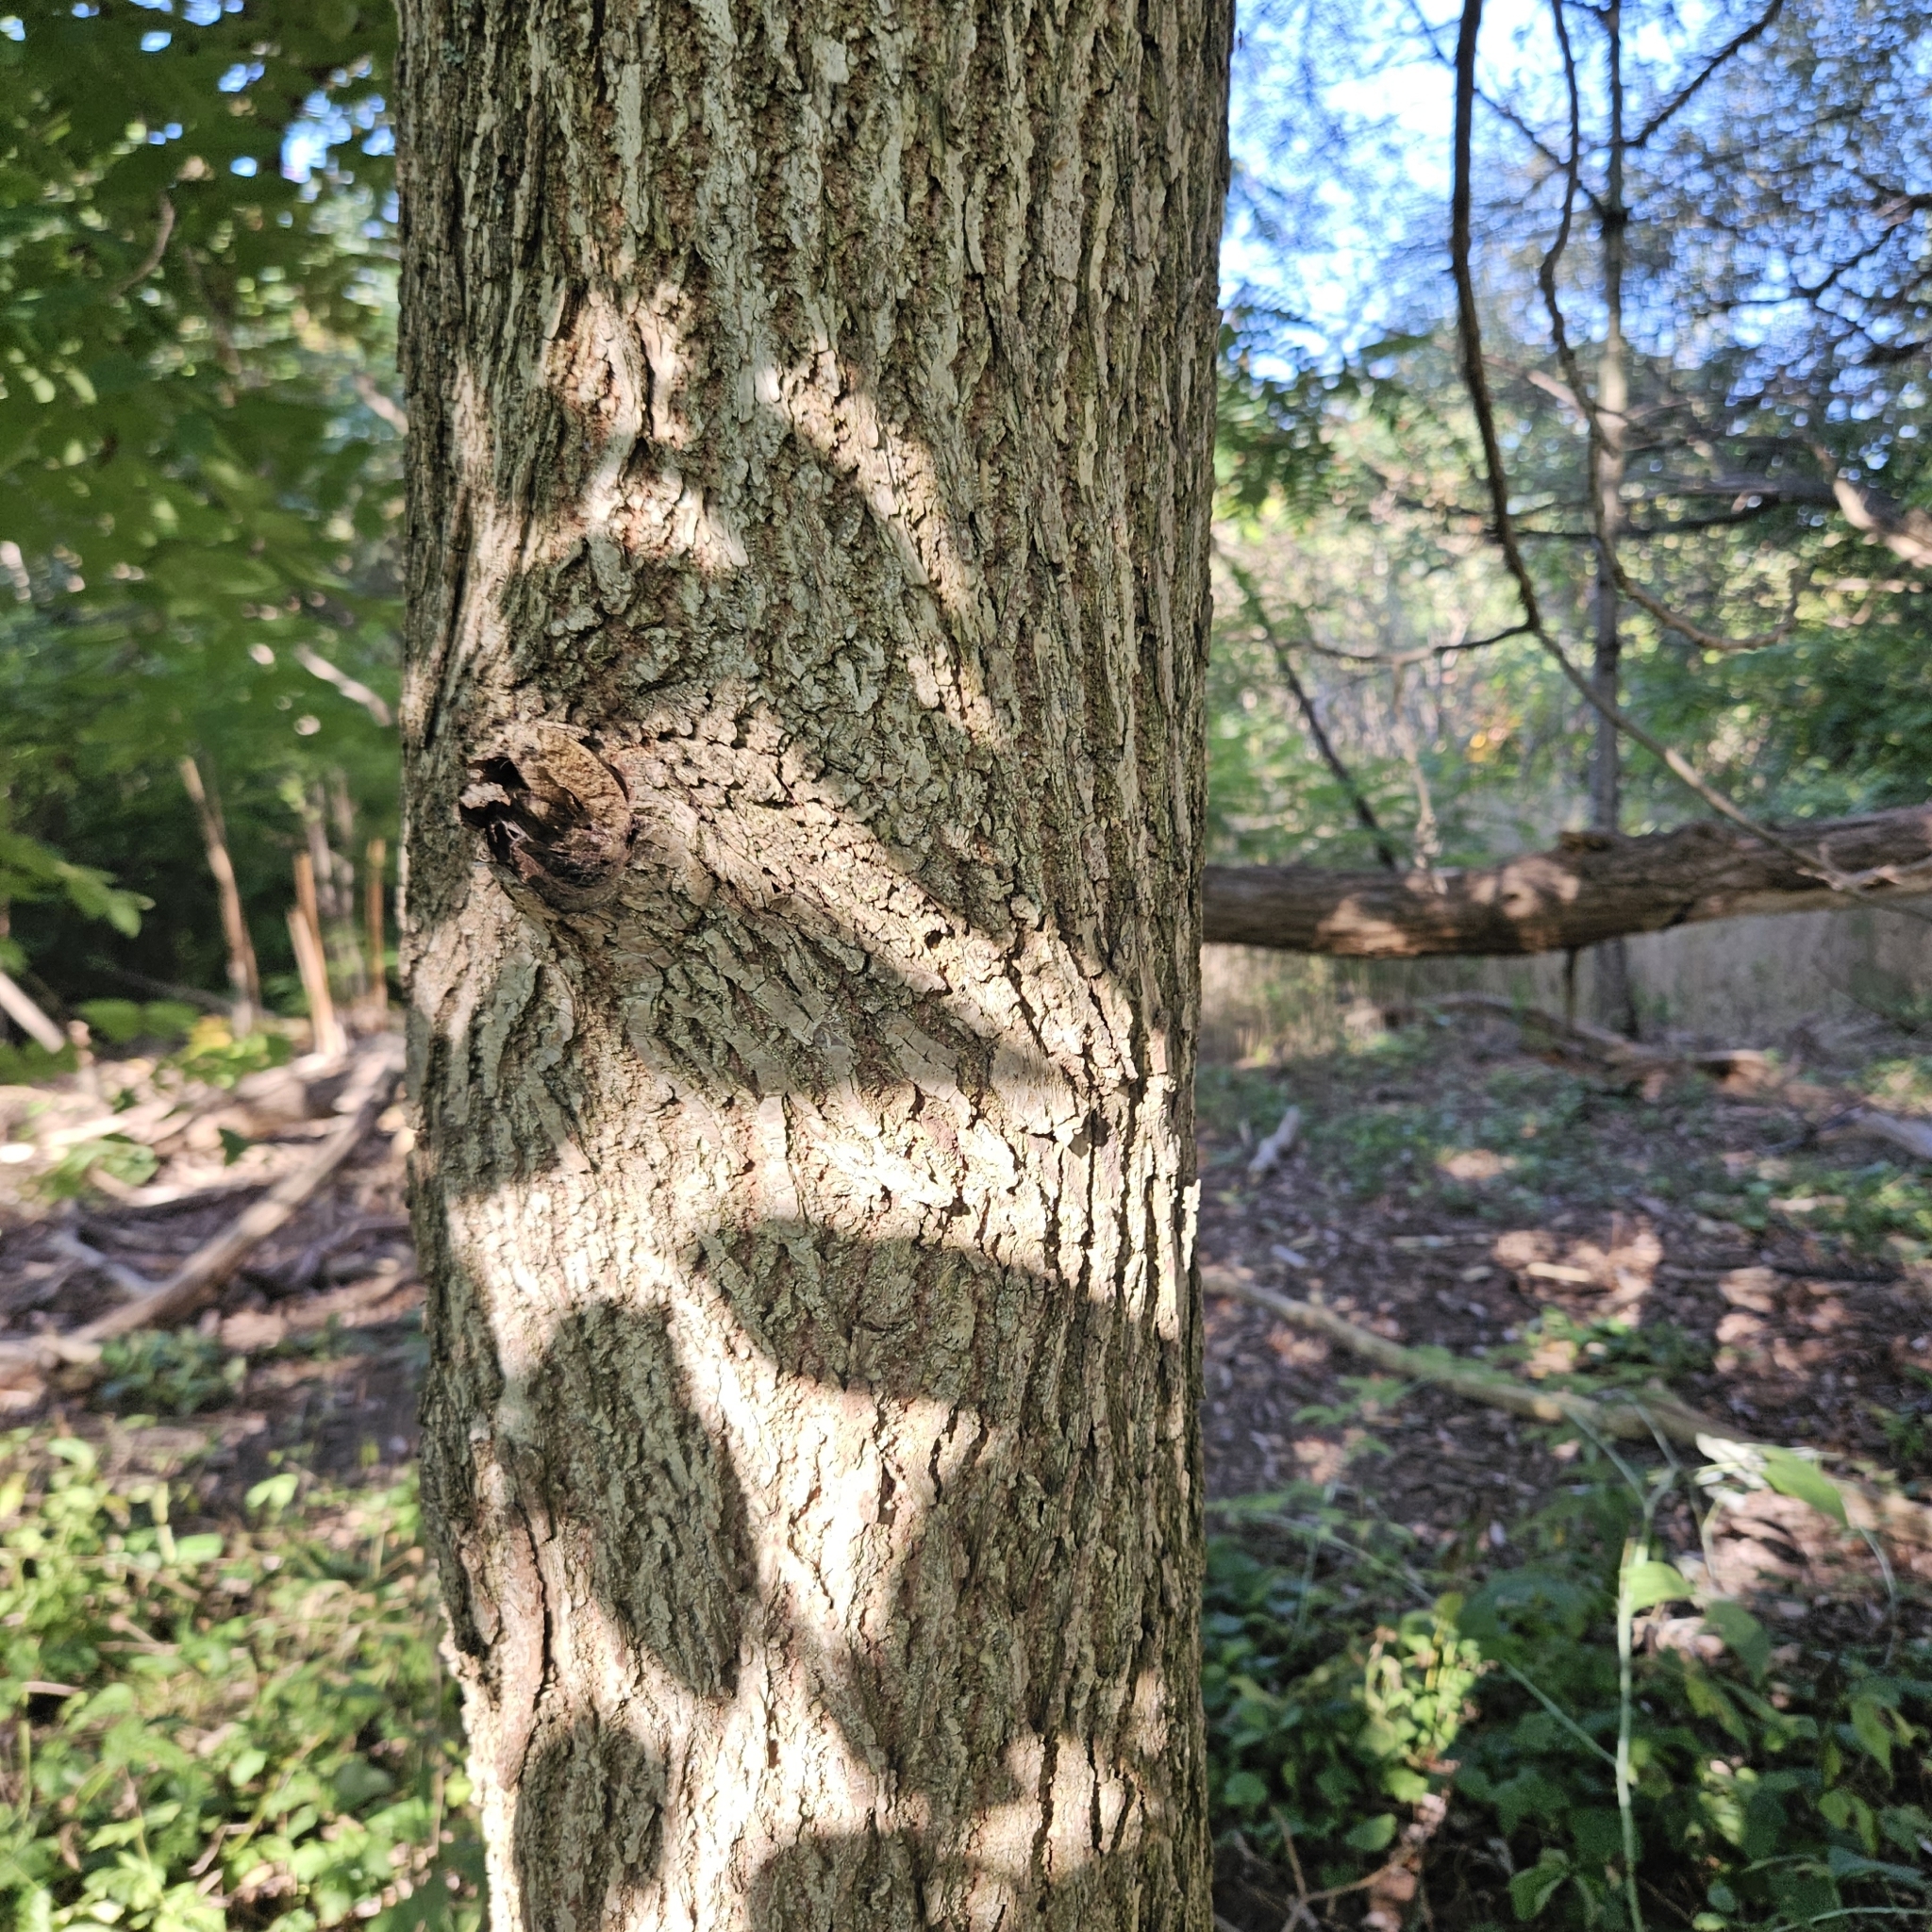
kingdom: Plantae
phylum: Tracheophyta
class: Magnoliopsida
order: Fagales
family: Juglandaceae
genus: Juglans
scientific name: Juglans nigra
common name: Black walnut
